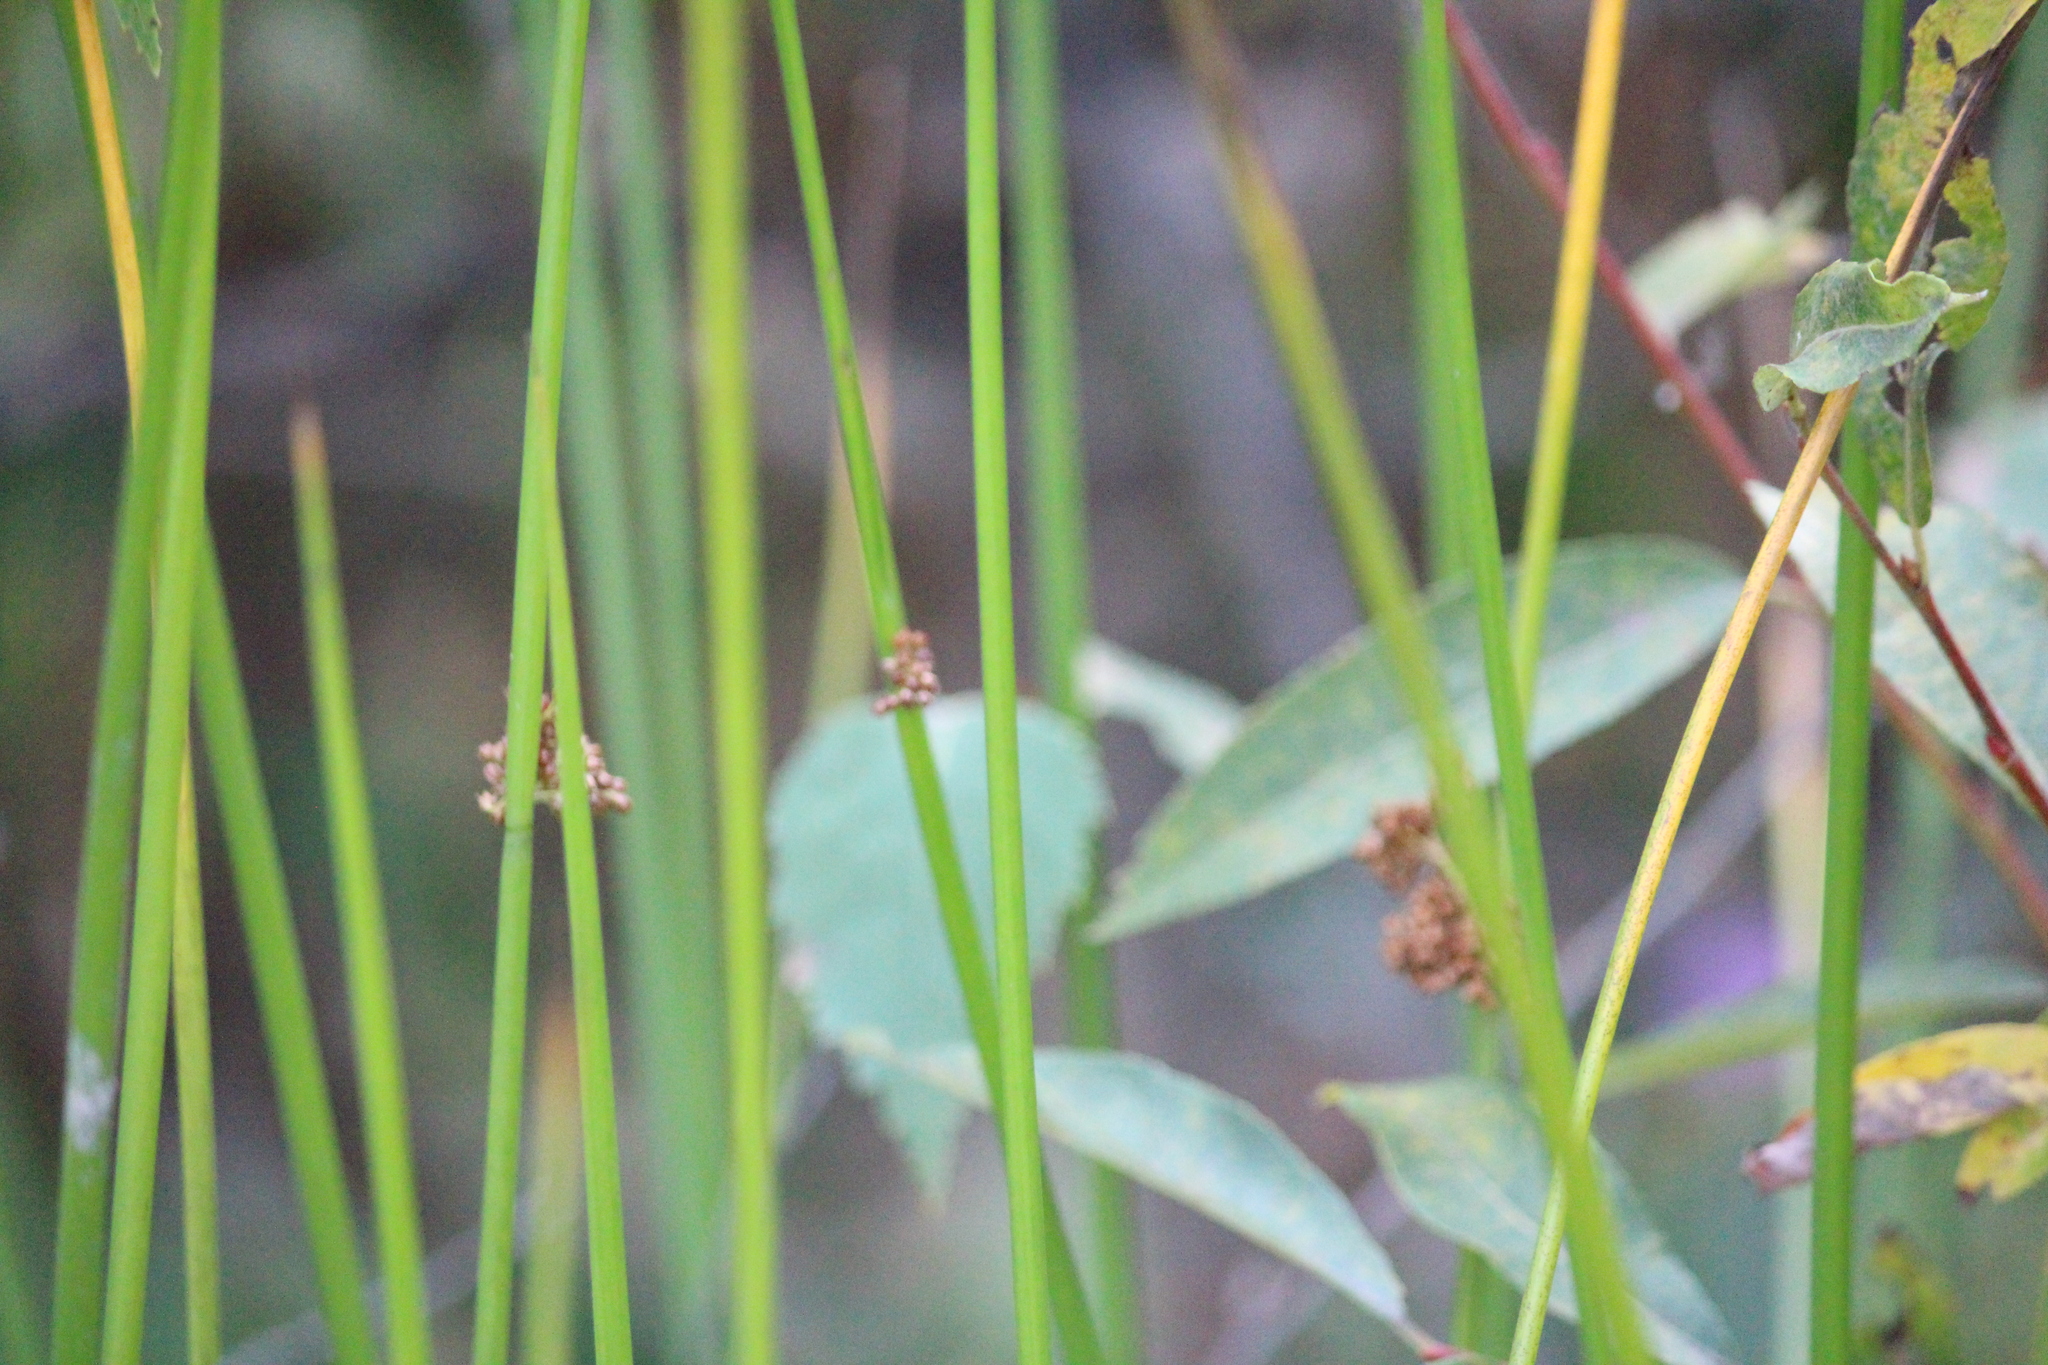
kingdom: Plantae
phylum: Tracheophyta
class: Liliopsida
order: Poales
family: Juncaceae
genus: Juncus
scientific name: Juncus effusus
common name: Soft rush
